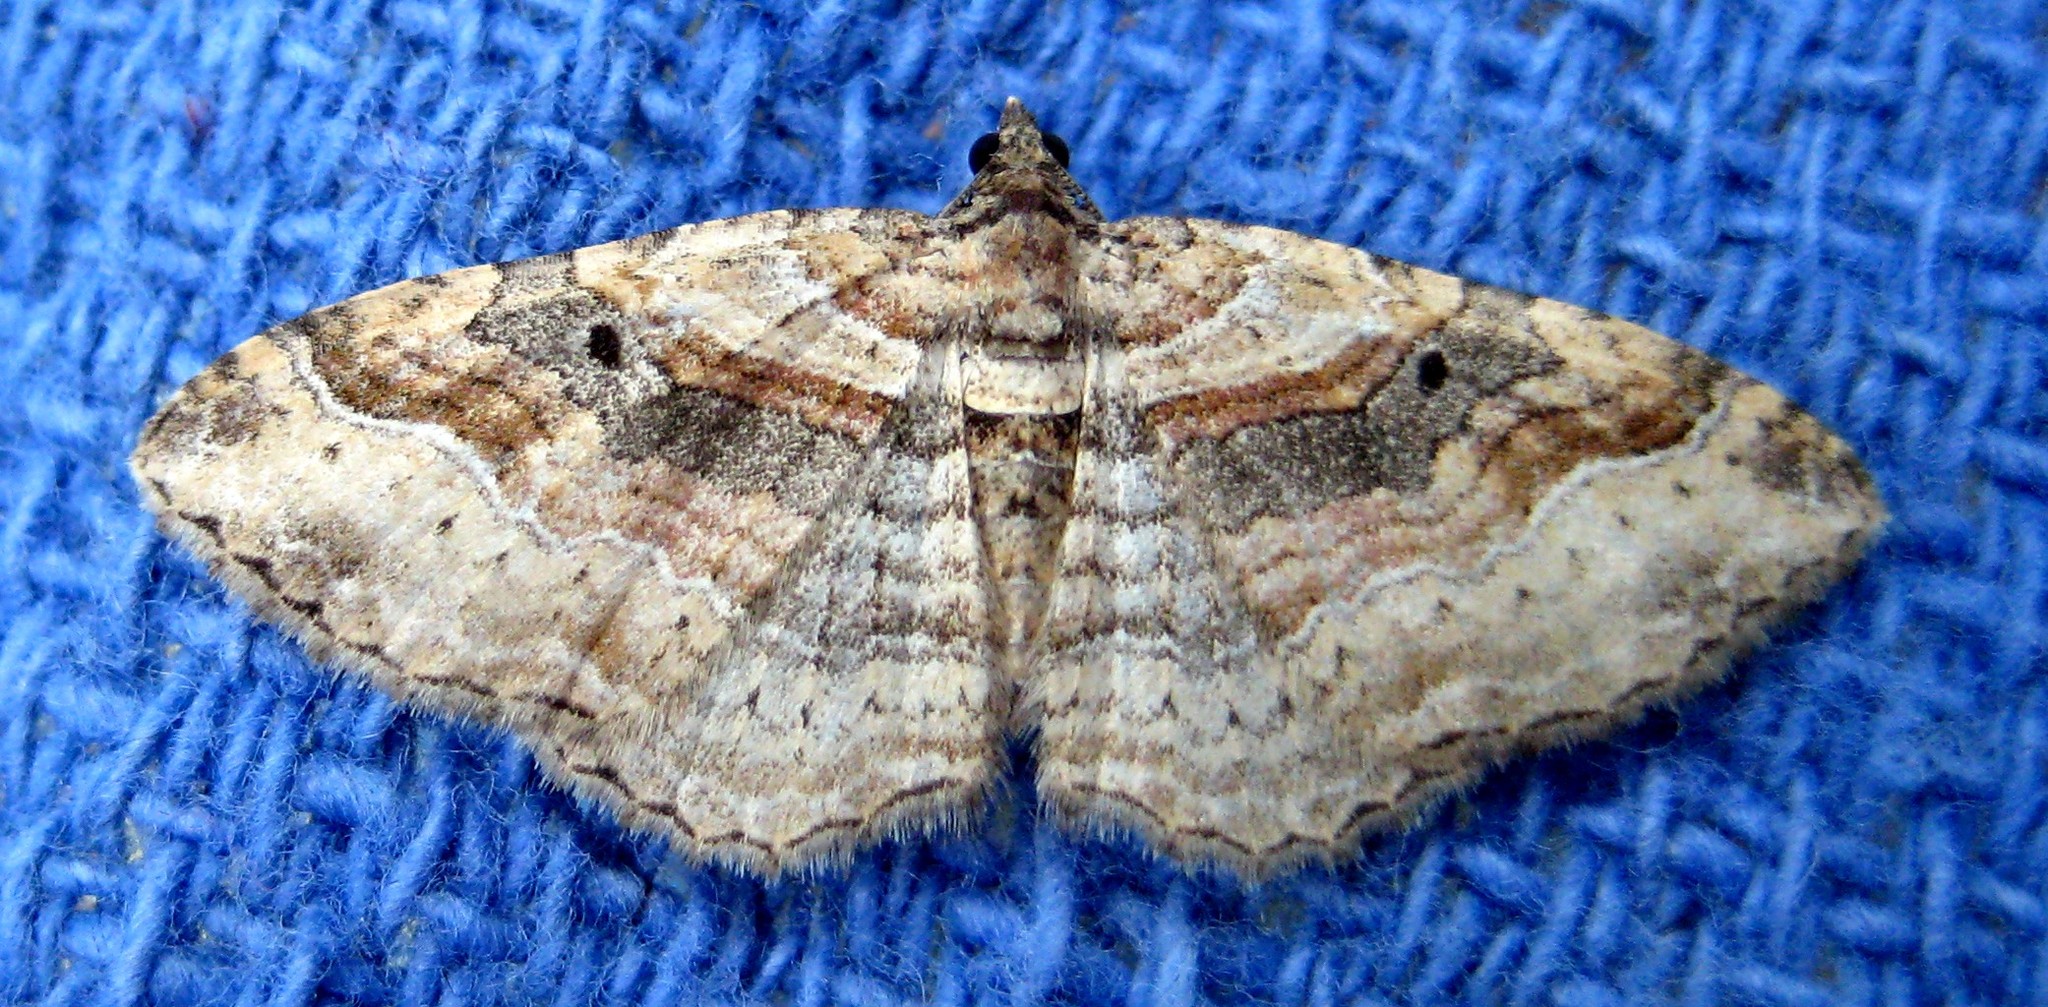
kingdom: Animalia
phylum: Arthropoda
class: Insecta
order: Lepidoptera
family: Geometridae
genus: Costaconvexa
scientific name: Costaconvexa centrostrigaria
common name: Bent-line carpet
